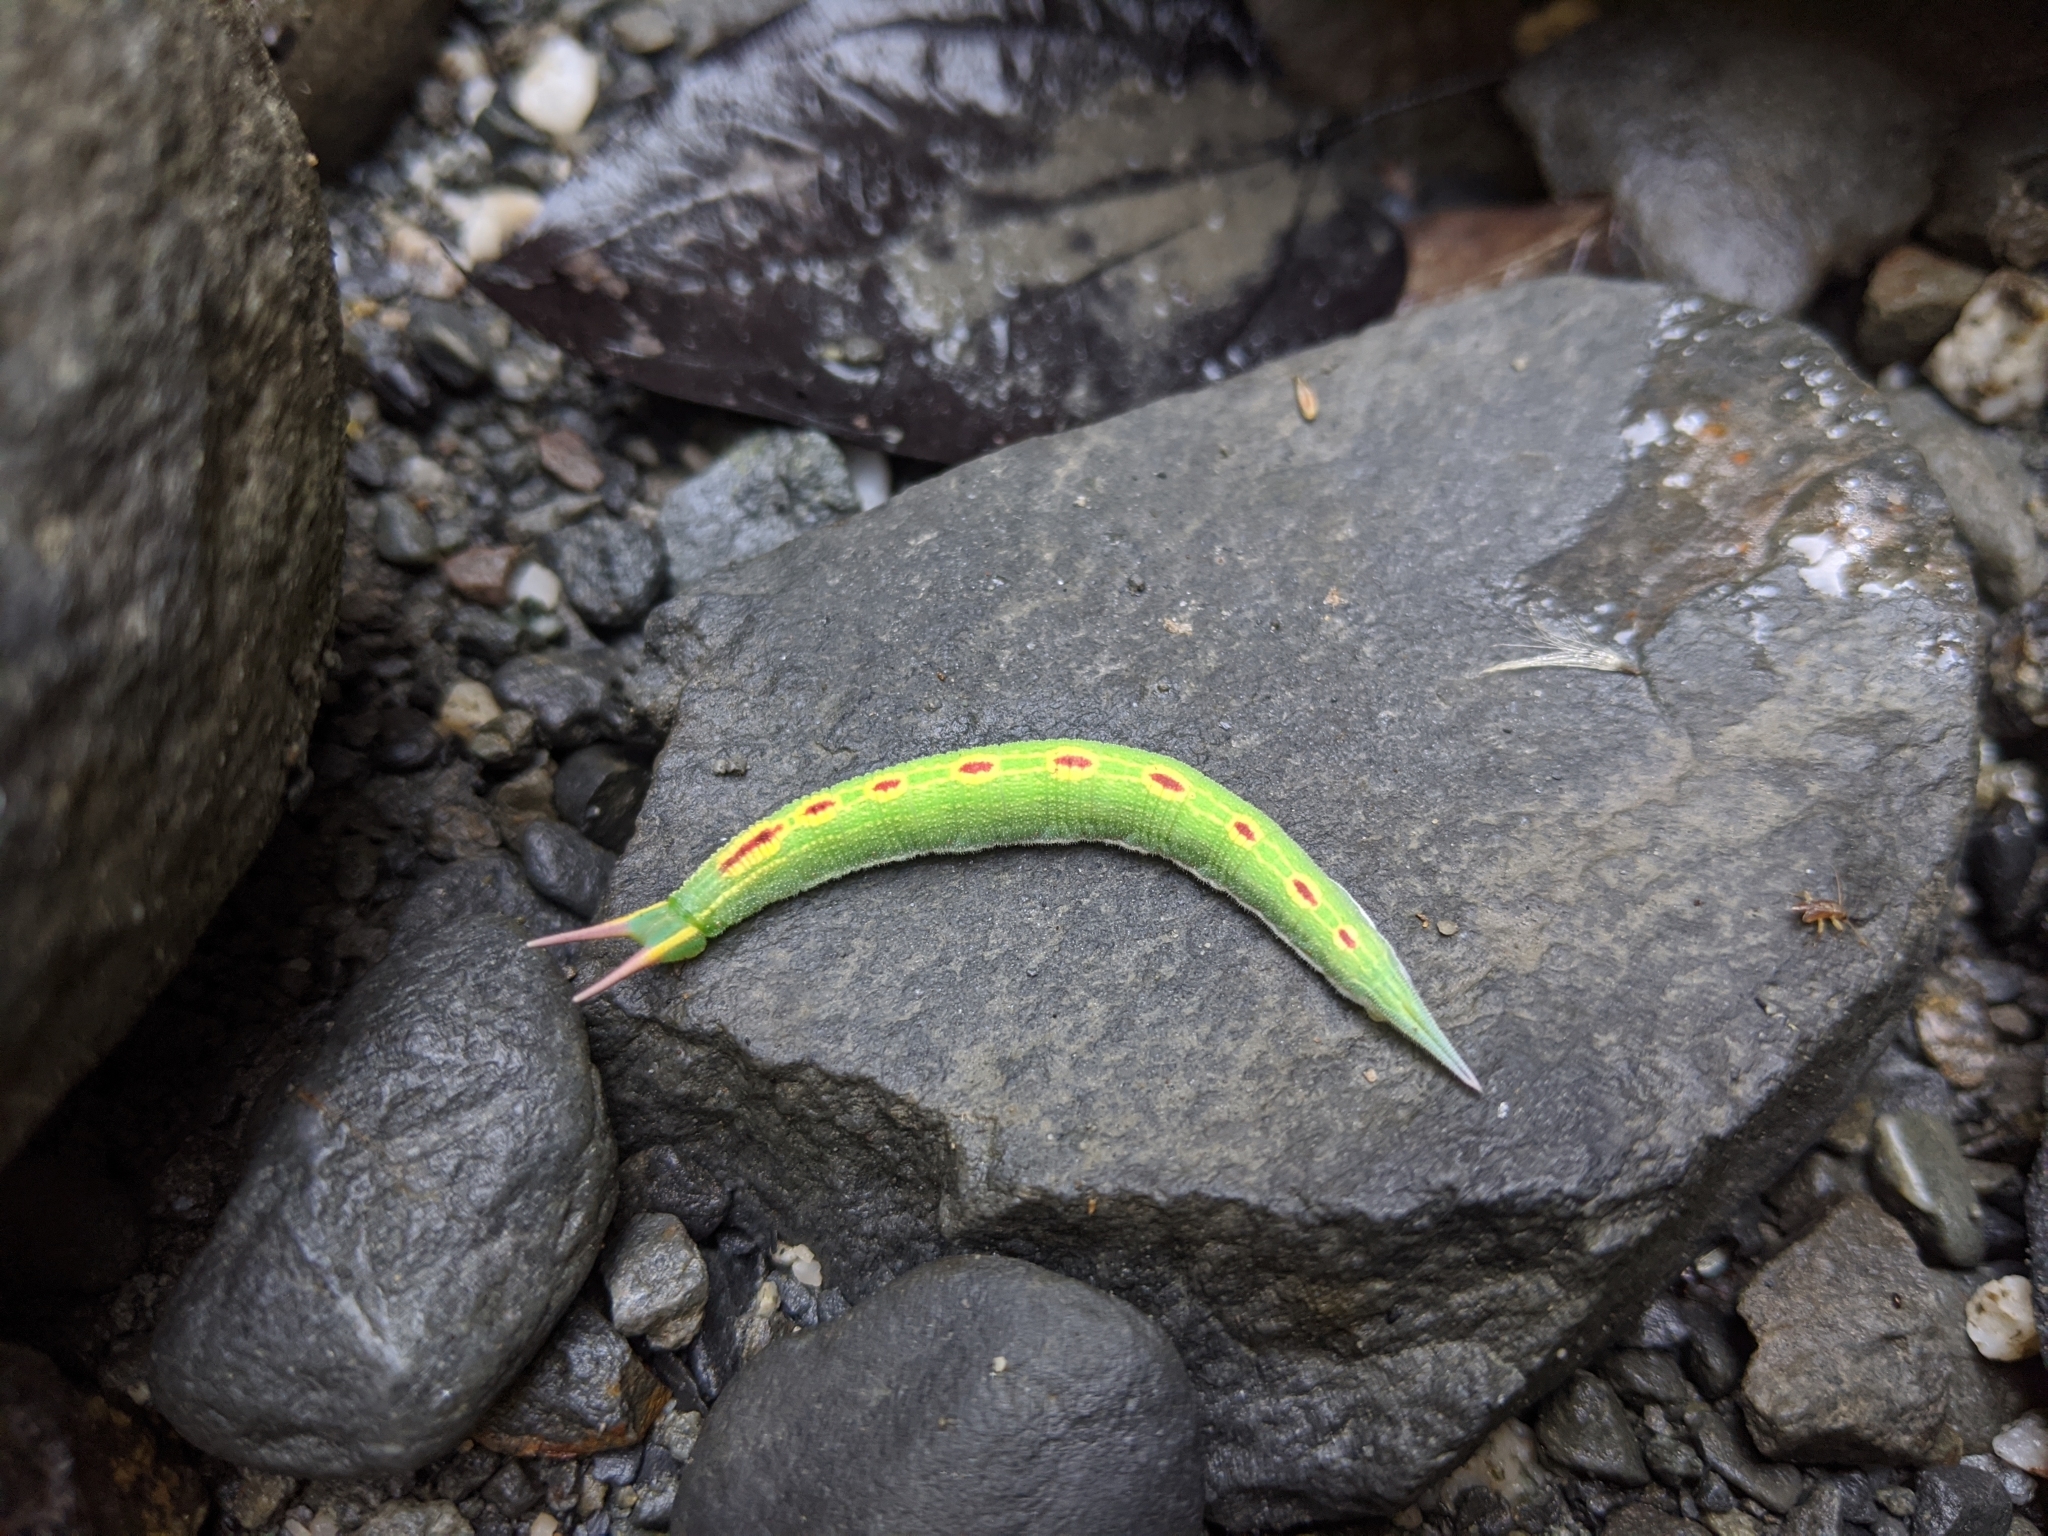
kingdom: Animalia
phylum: Arthropoda
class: Insecta
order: Lepidoptera
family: Nymphalidae
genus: Lethe
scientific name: Lethe chandica
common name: Angled red forester
